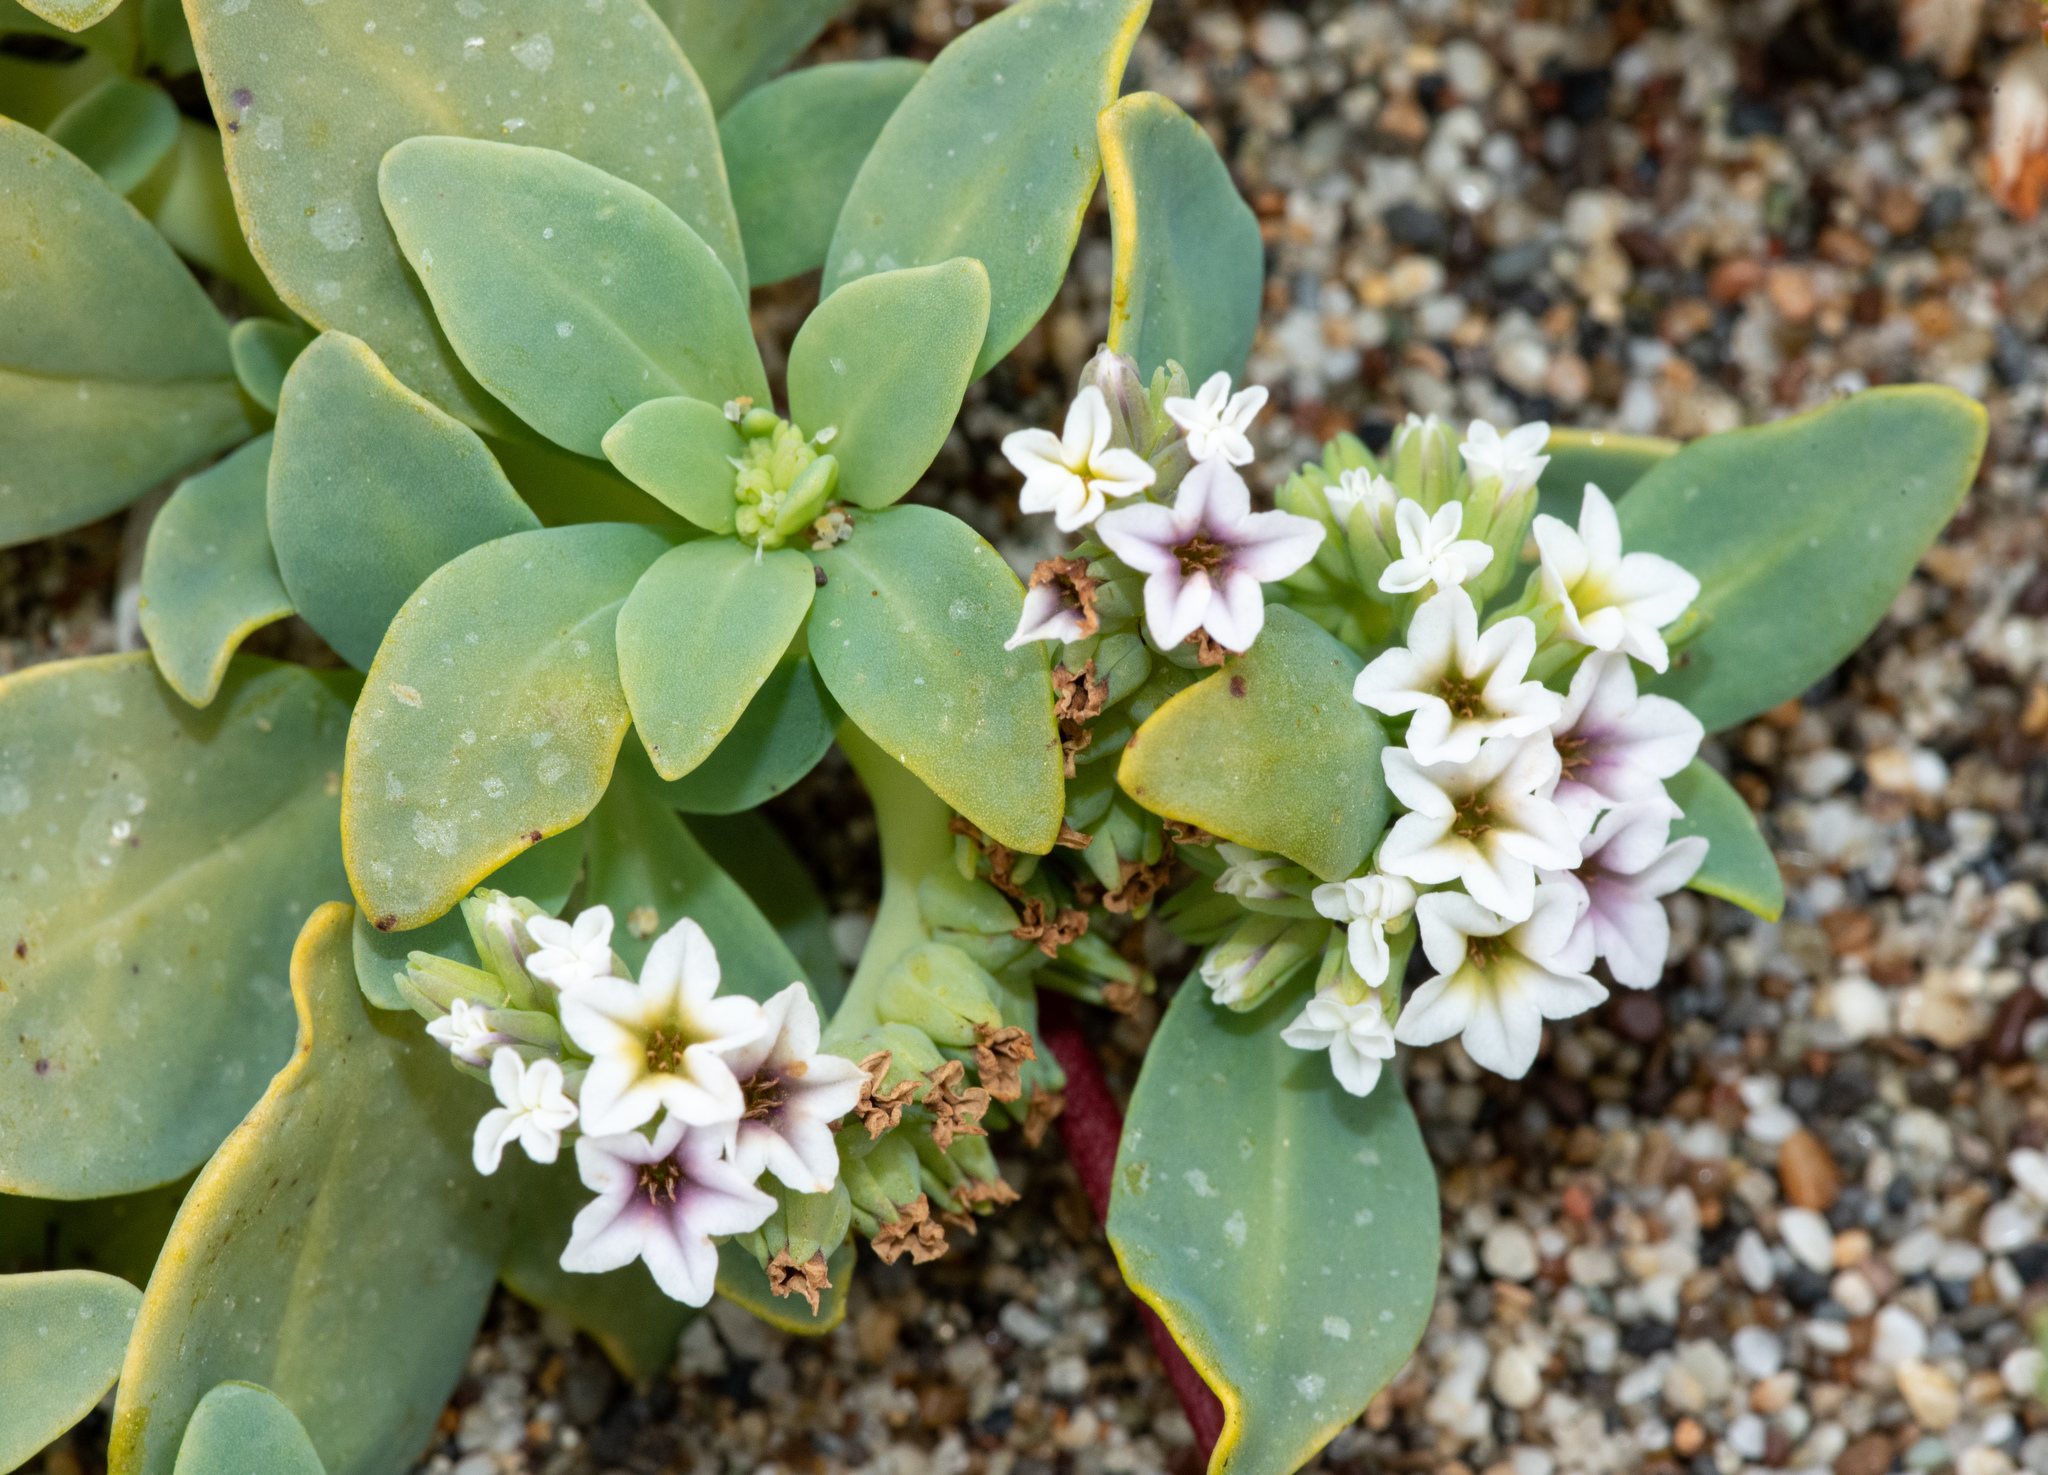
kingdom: Plantae
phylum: Tracheophyta
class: Magnoliopsida
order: Boraginales
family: Heliotropiaceae
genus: Heliotropium
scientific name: Heliotropium curassavicum
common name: Seaside heliotrope
